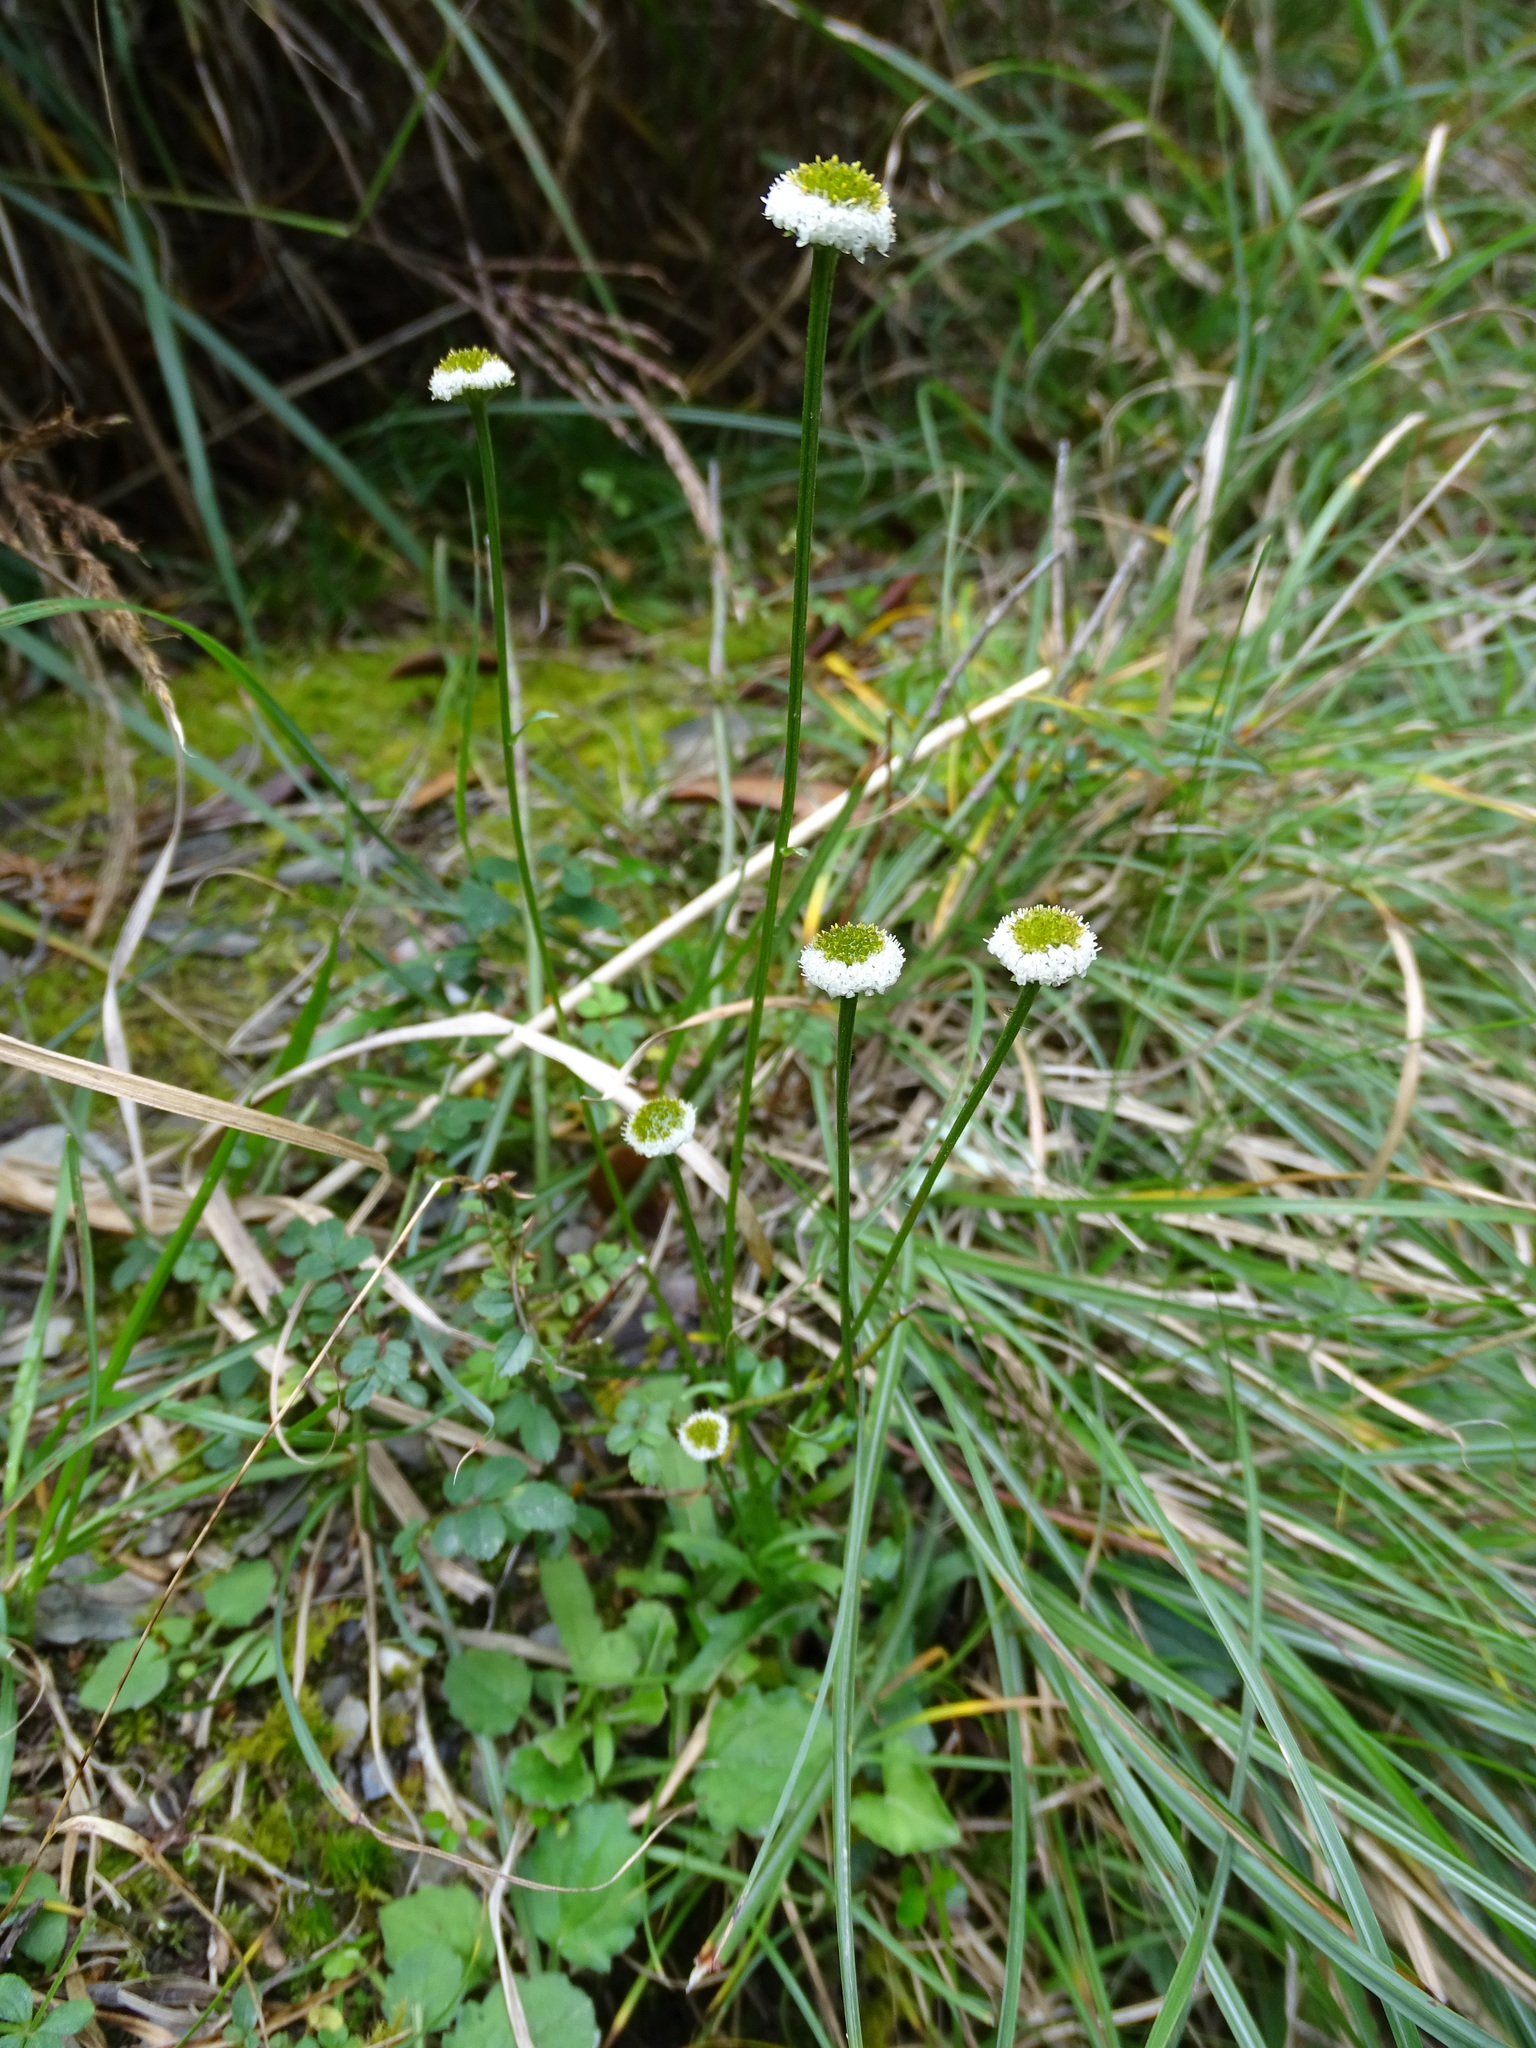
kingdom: Plantae
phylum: Tracheophyta
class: Magnoliopsida
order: Asterales
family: Asteraceae
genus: Myriactis
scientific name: Myriactis humilis
